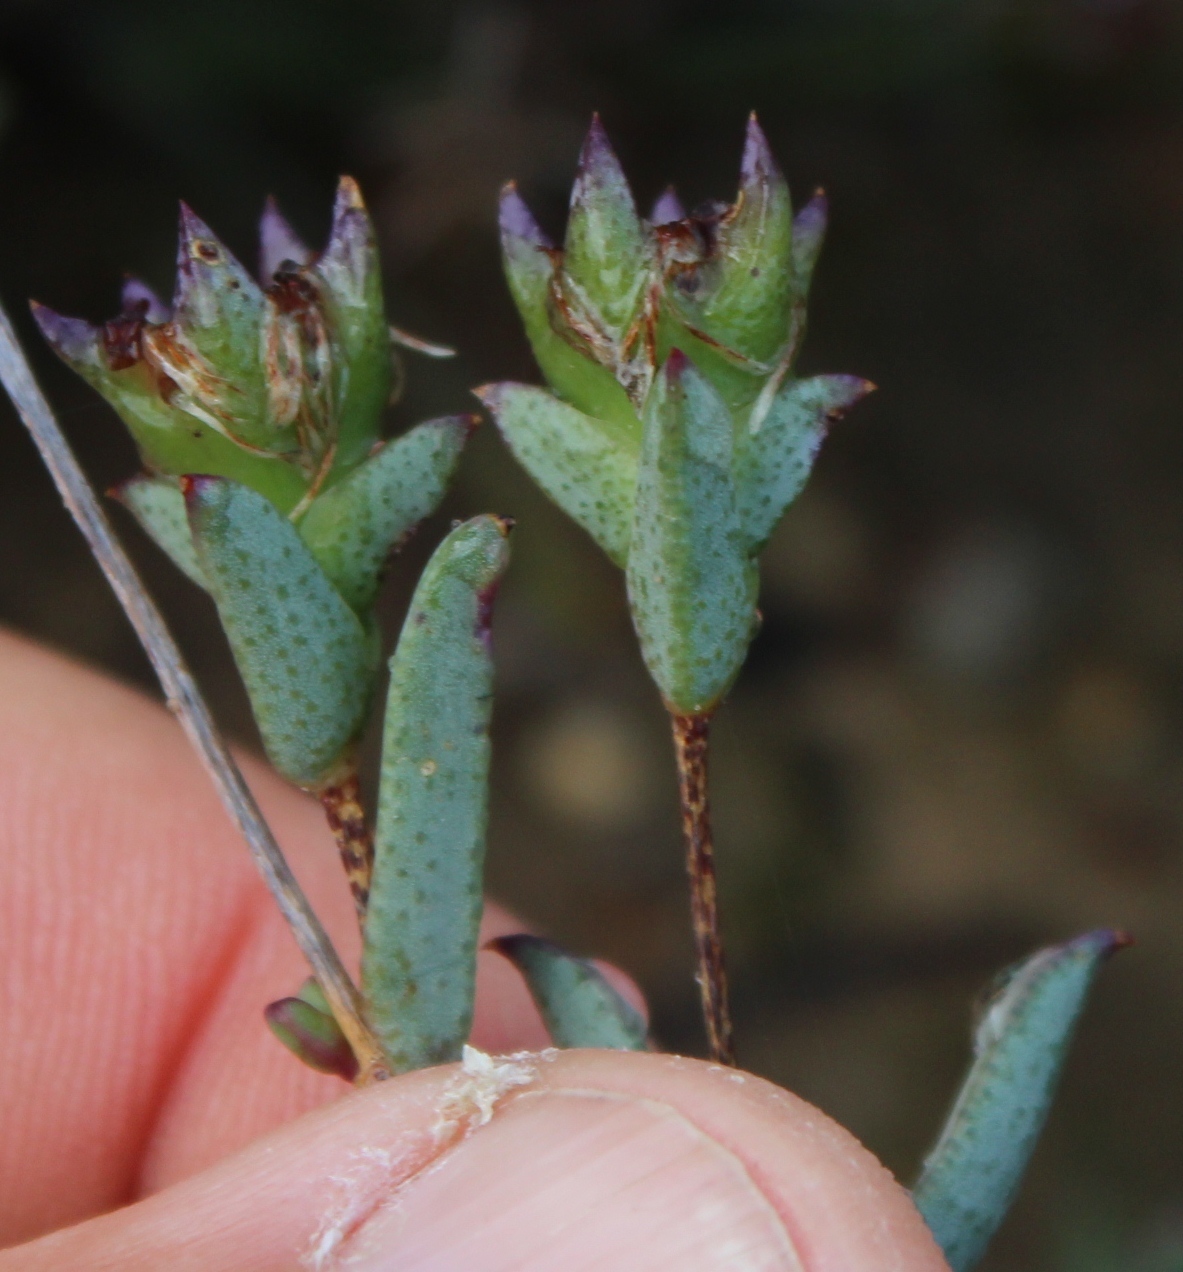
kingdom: Plantae
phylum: Tracheophyta
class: Magnoliopsida
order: Caryophyllales
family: Aizoaceae
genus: Erepsia
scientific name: Erepsia ramosa
